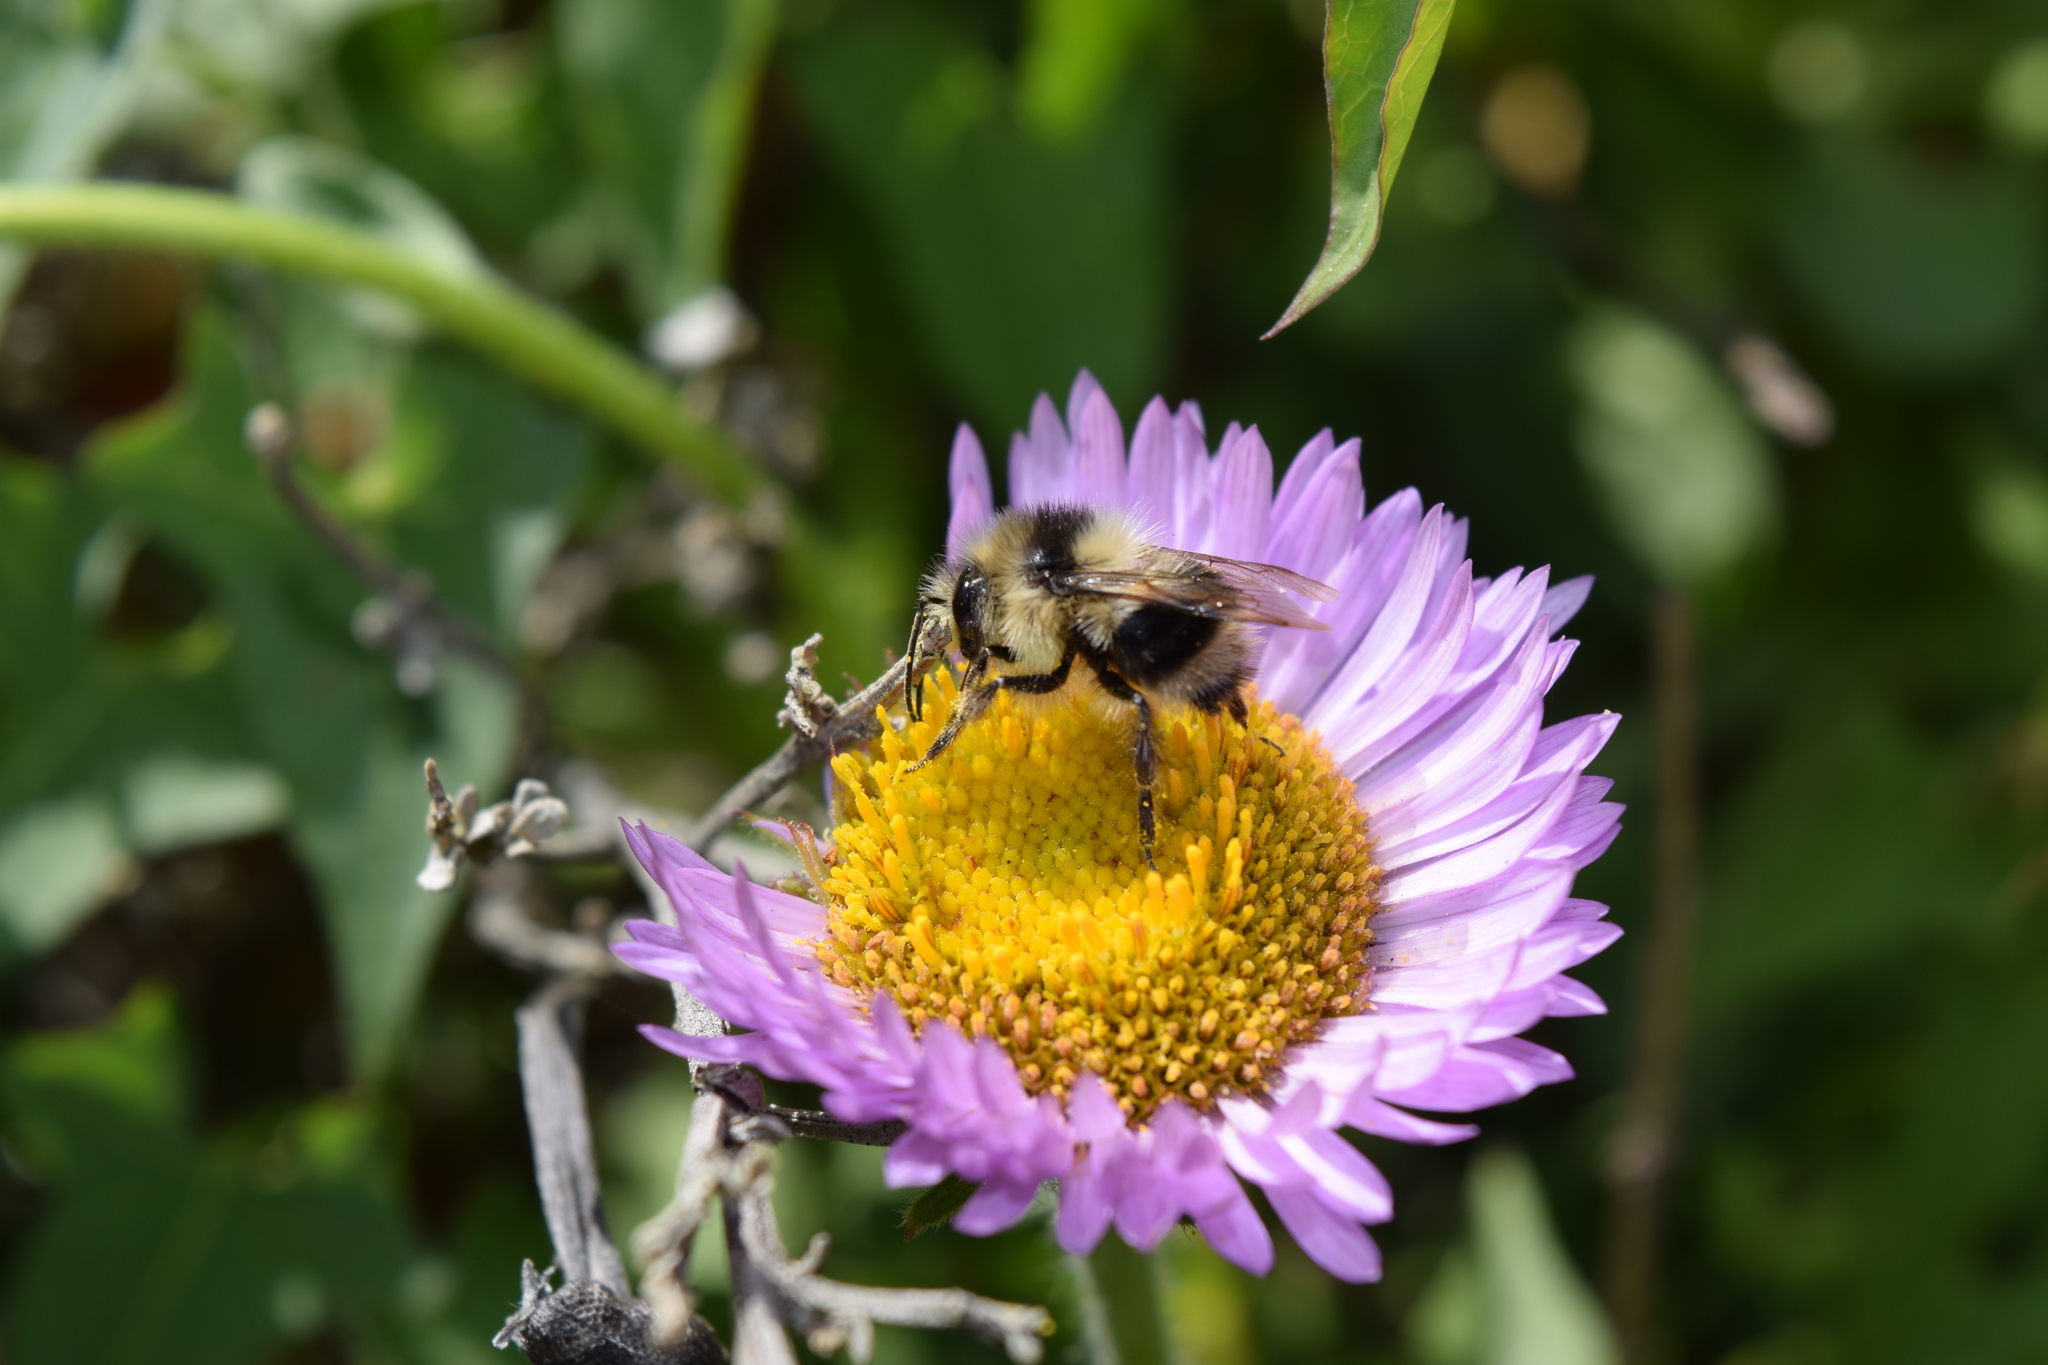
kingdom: Animalia
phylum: Arthropoda
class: Insecta
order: Hymenoptera
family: Apidae
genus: Bombus
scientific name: Bombus melanopygus
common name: Black tail bumble bee
